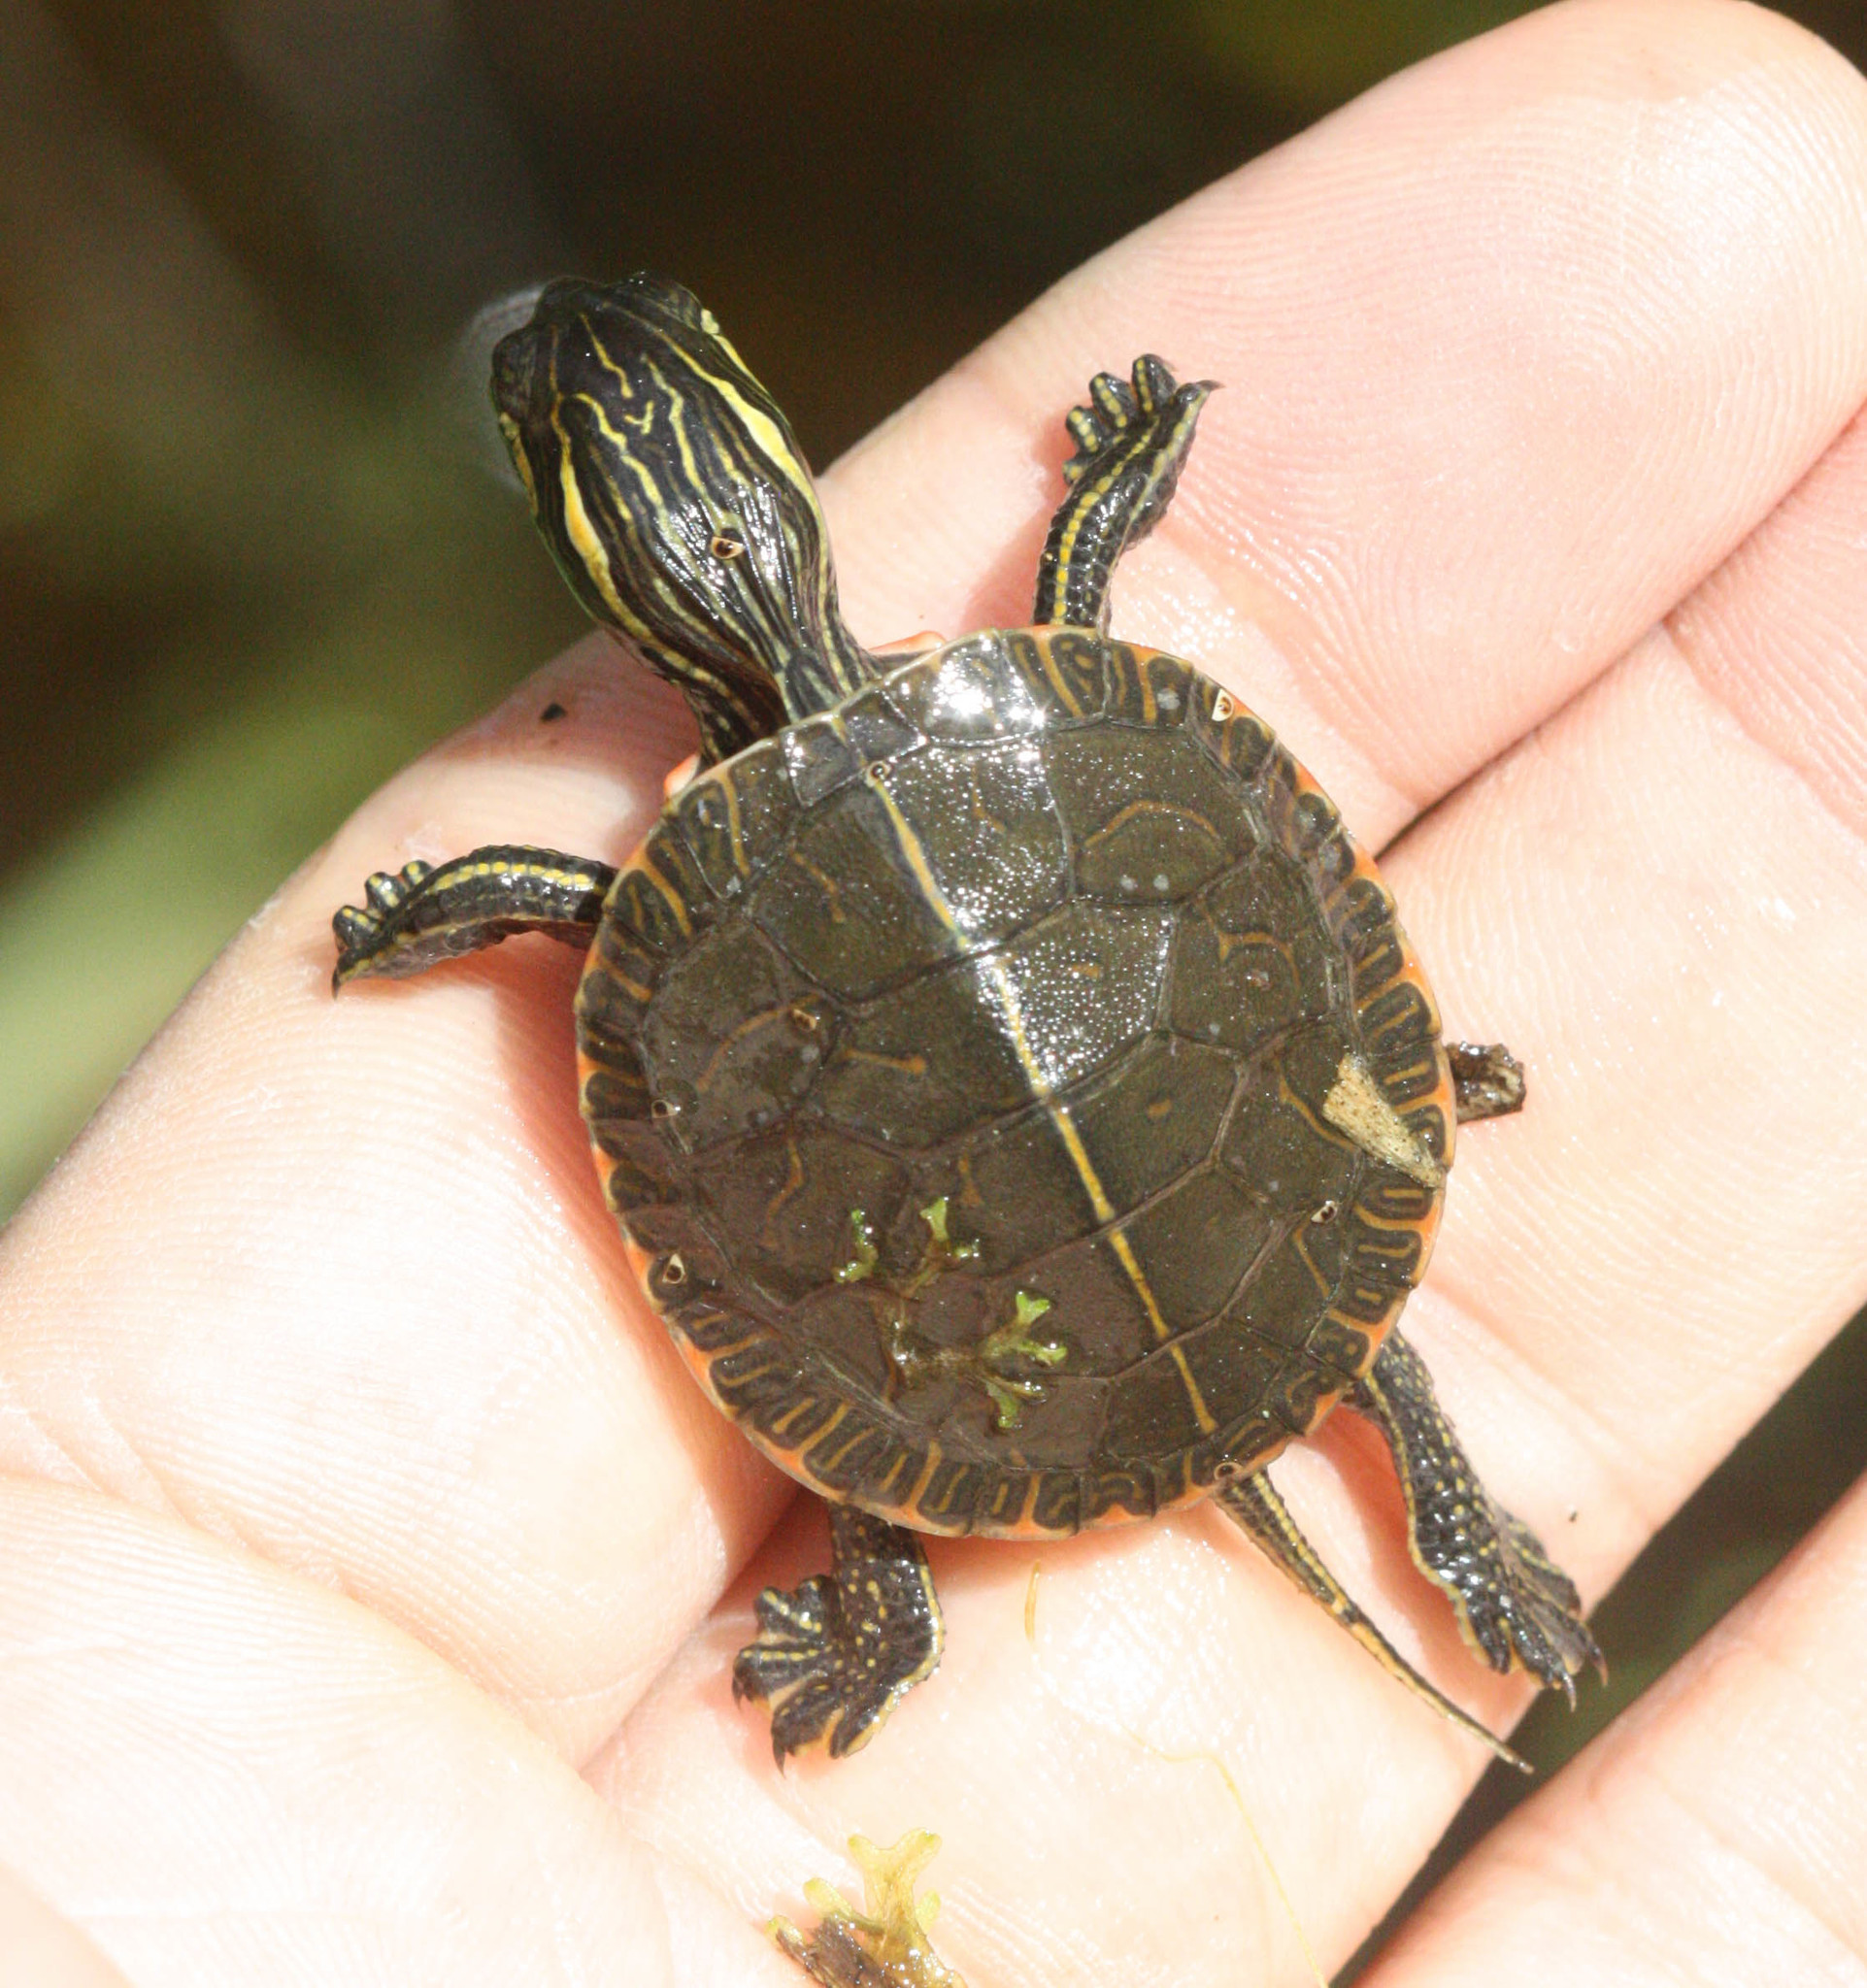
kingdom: Animalia
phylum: Chordata
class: Testudines
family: Emydidae
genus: Chrysemys
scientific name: Chrysemys picta
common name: Painted turtle
